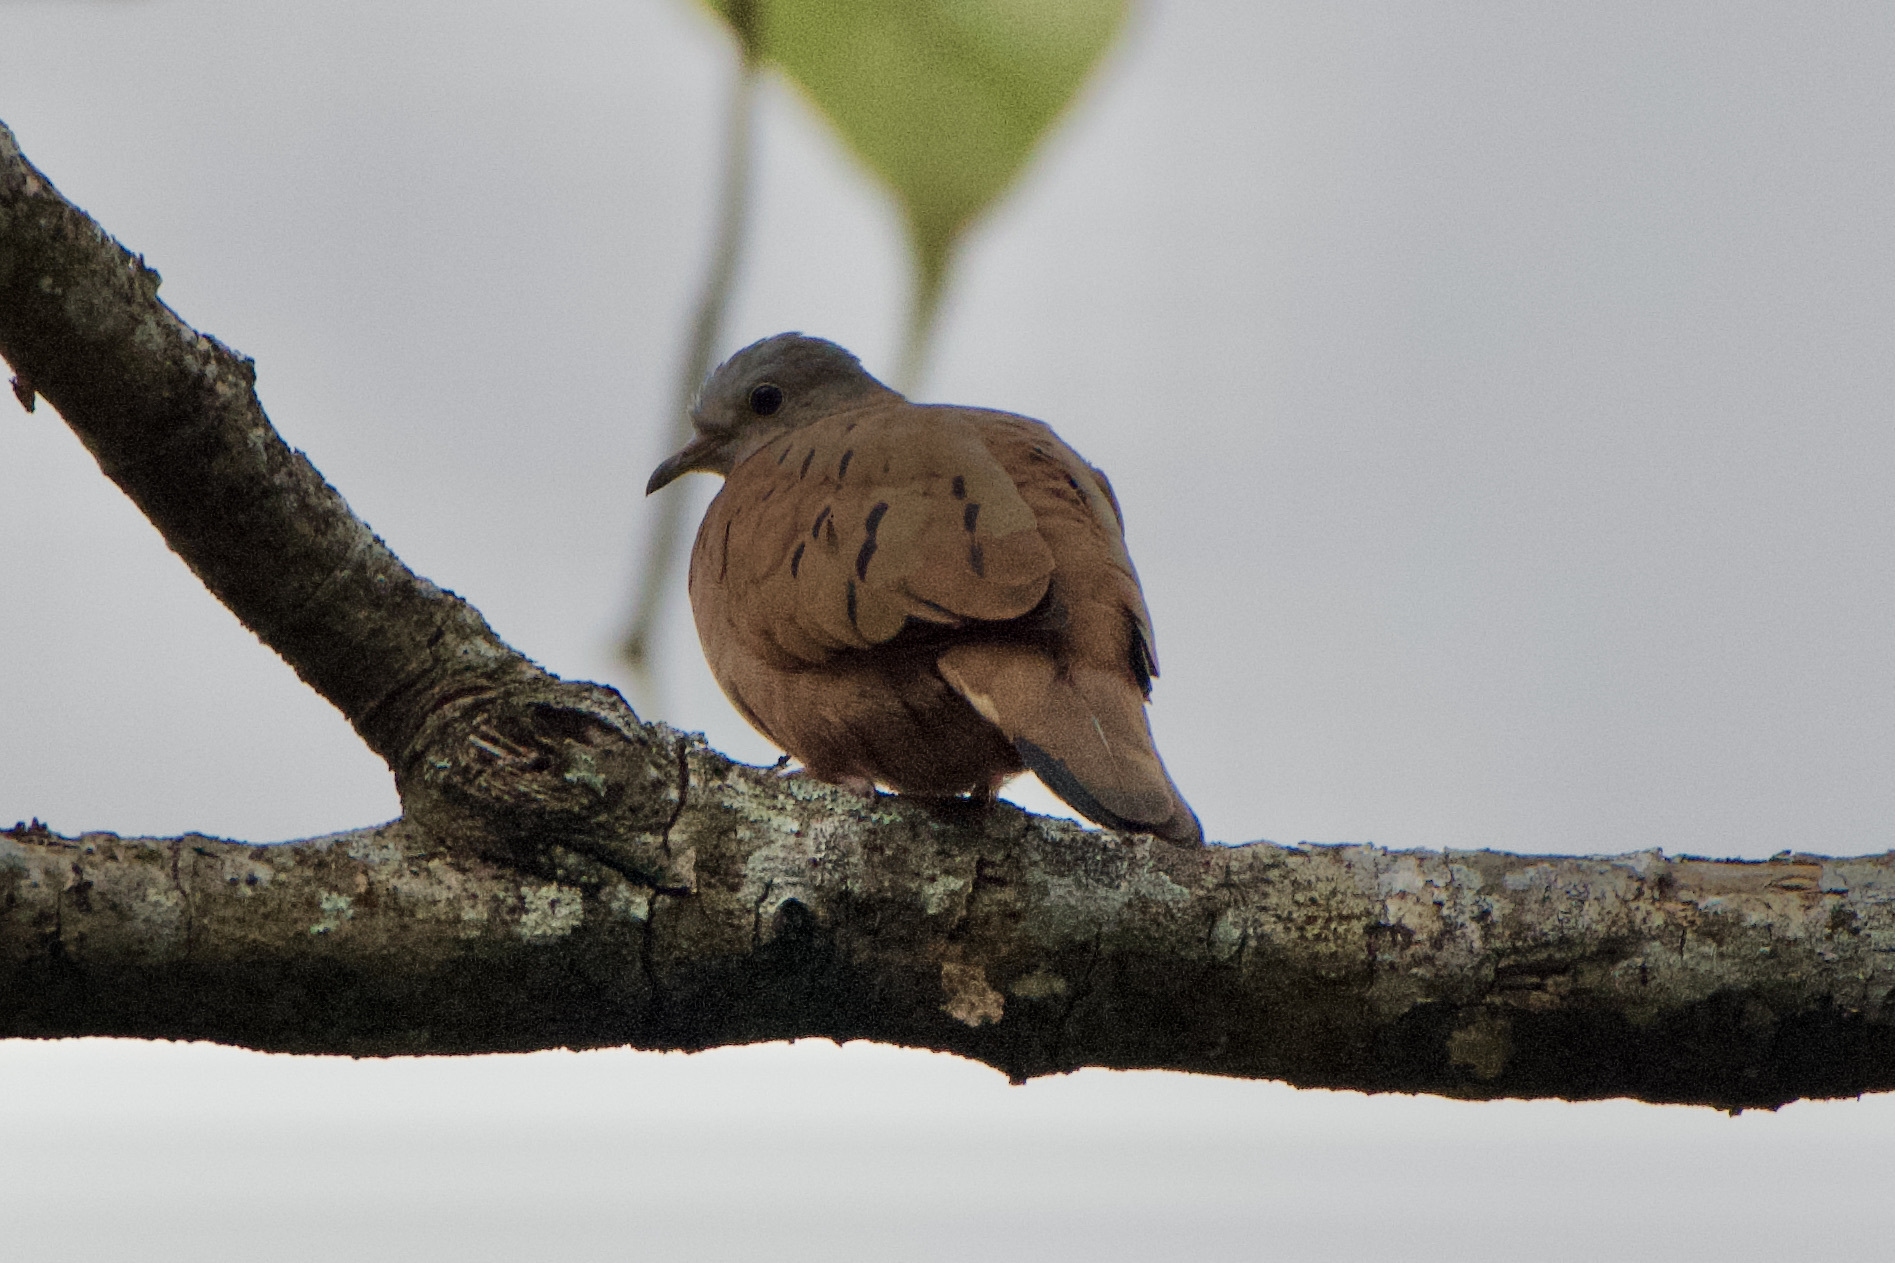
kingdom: Animalia
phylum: Chordata
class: Aves
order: Columbiformes
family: Columbidae
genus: Columbina
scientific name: Columbina talpacoti
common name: Ruddy ground dove
